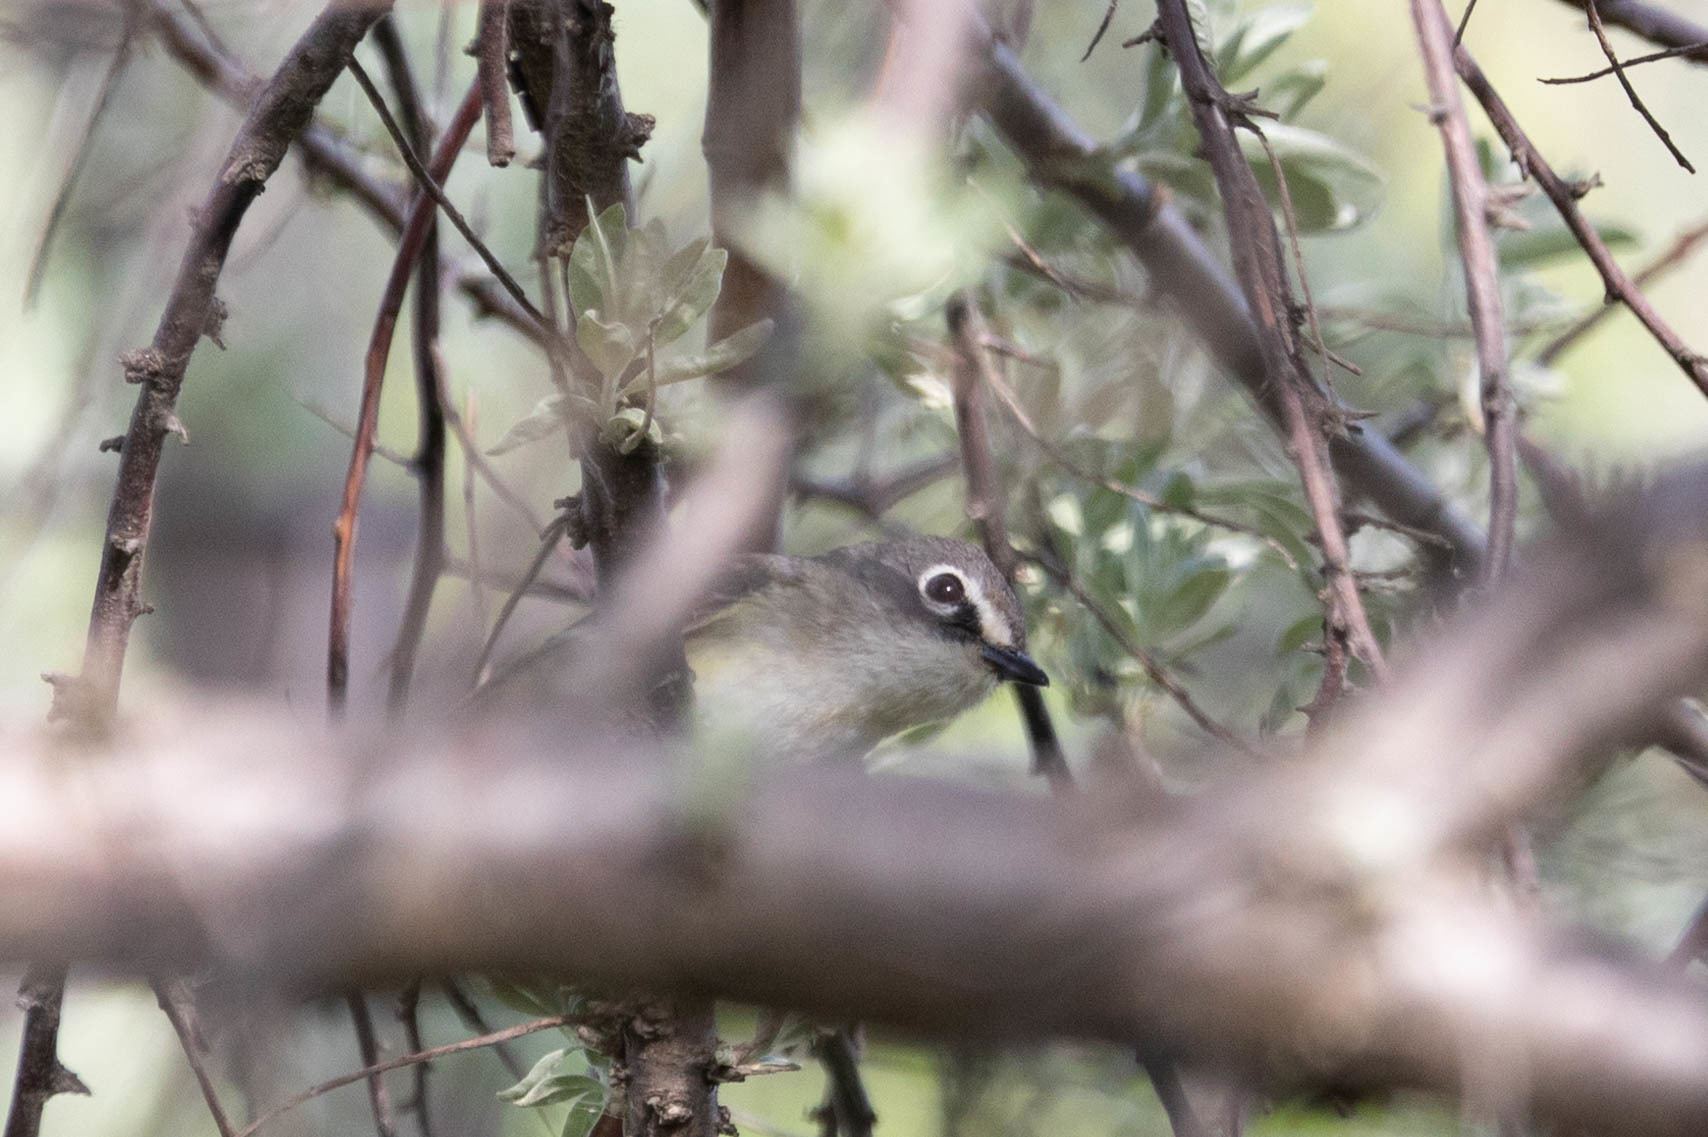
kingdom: Animalia
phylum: Chordata
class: Aves
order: Passeriformes
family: Vireonidae
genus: Vireo
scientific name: Vireo solitarius
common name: Blue-headed vireo
